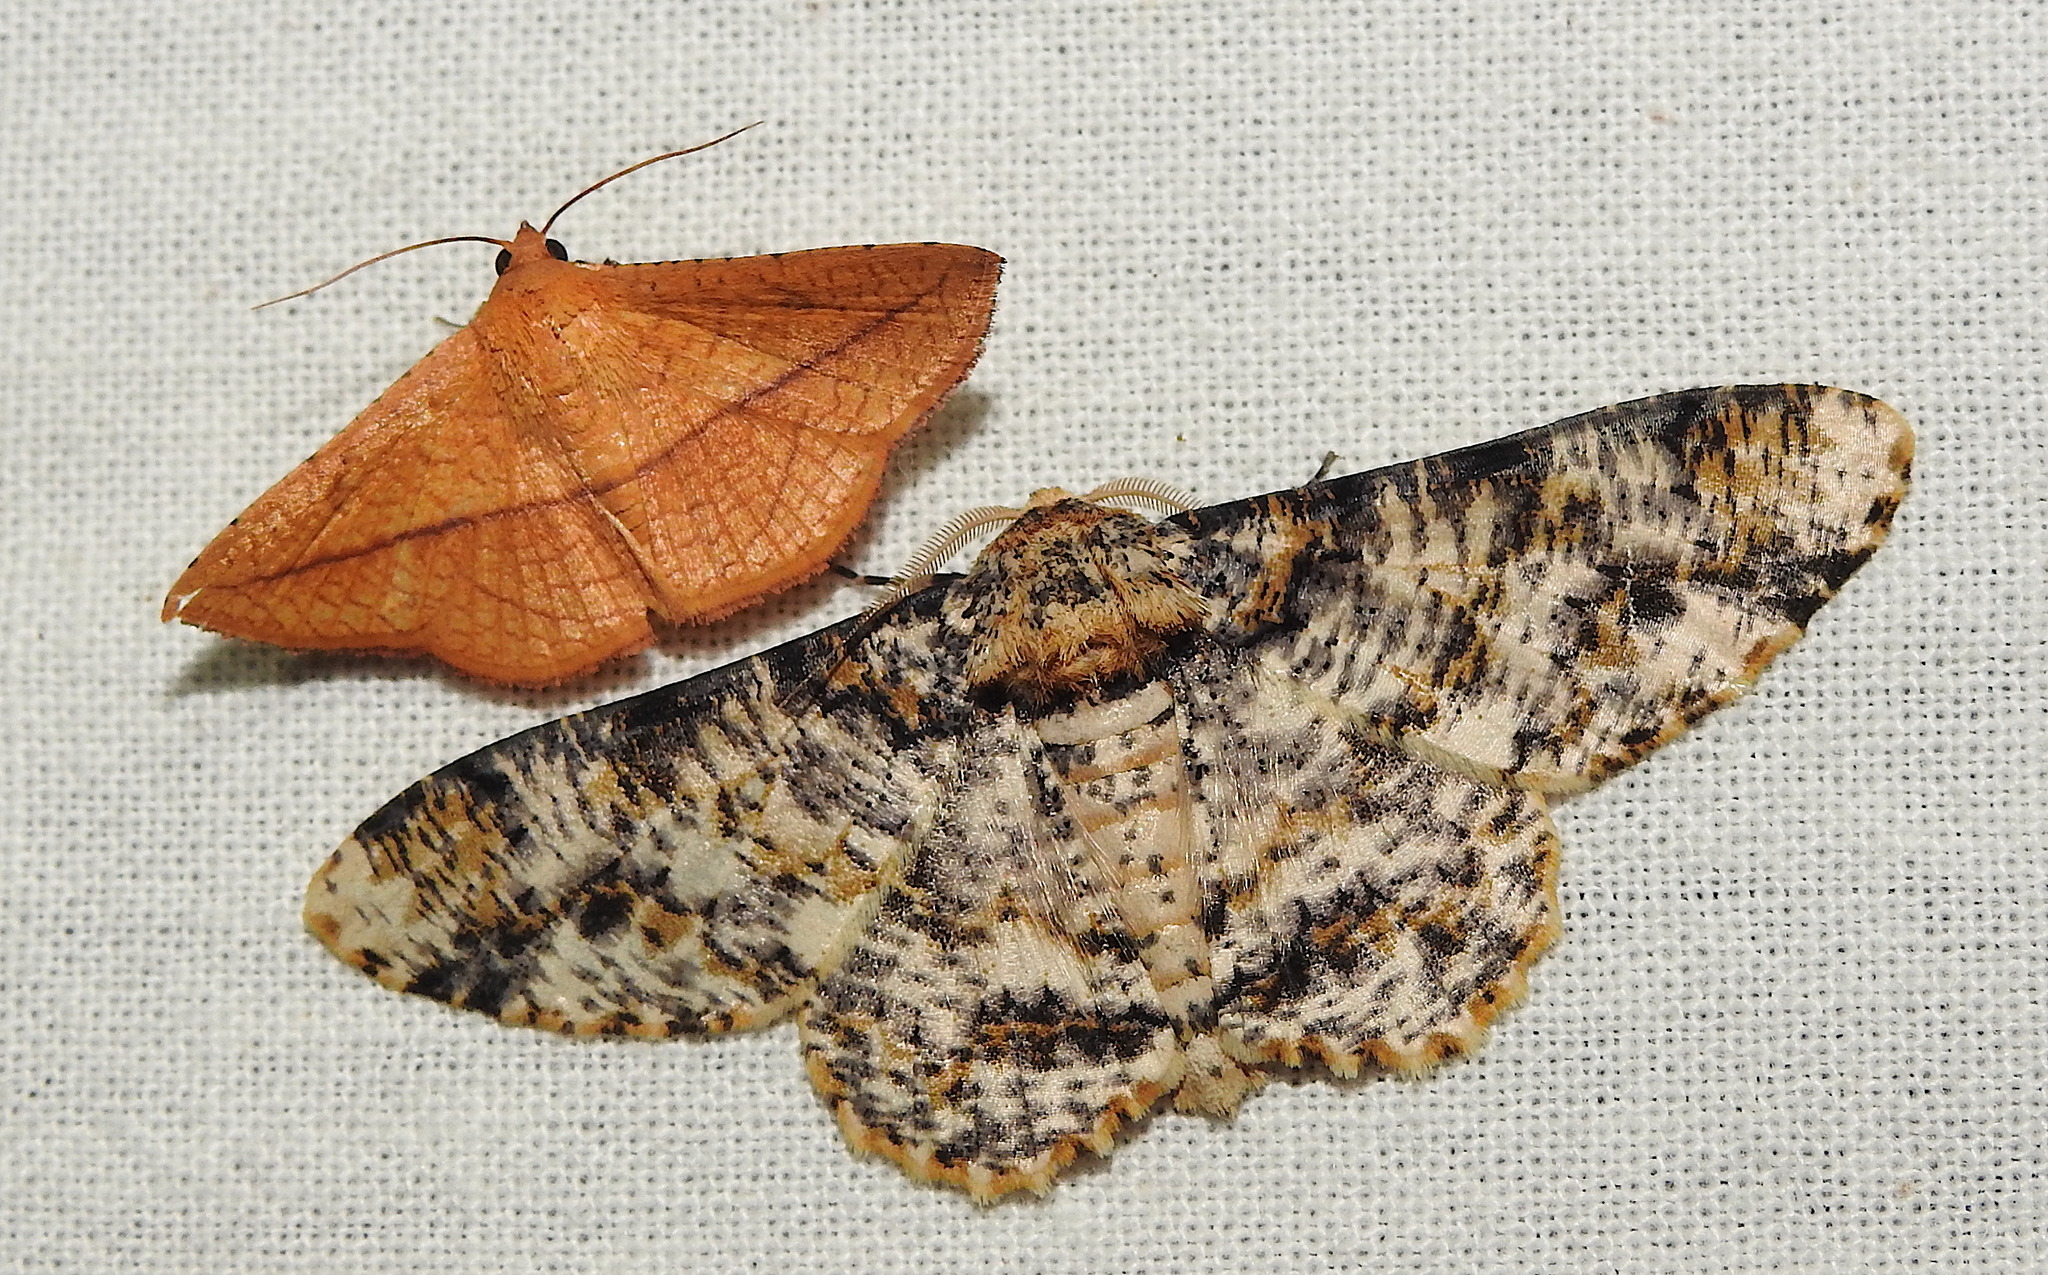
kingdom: Animalia
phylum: Arthropoda
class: Insecta
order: Lepidoptera
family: Geometridae
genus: Biston
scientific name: Biston suppressaria
